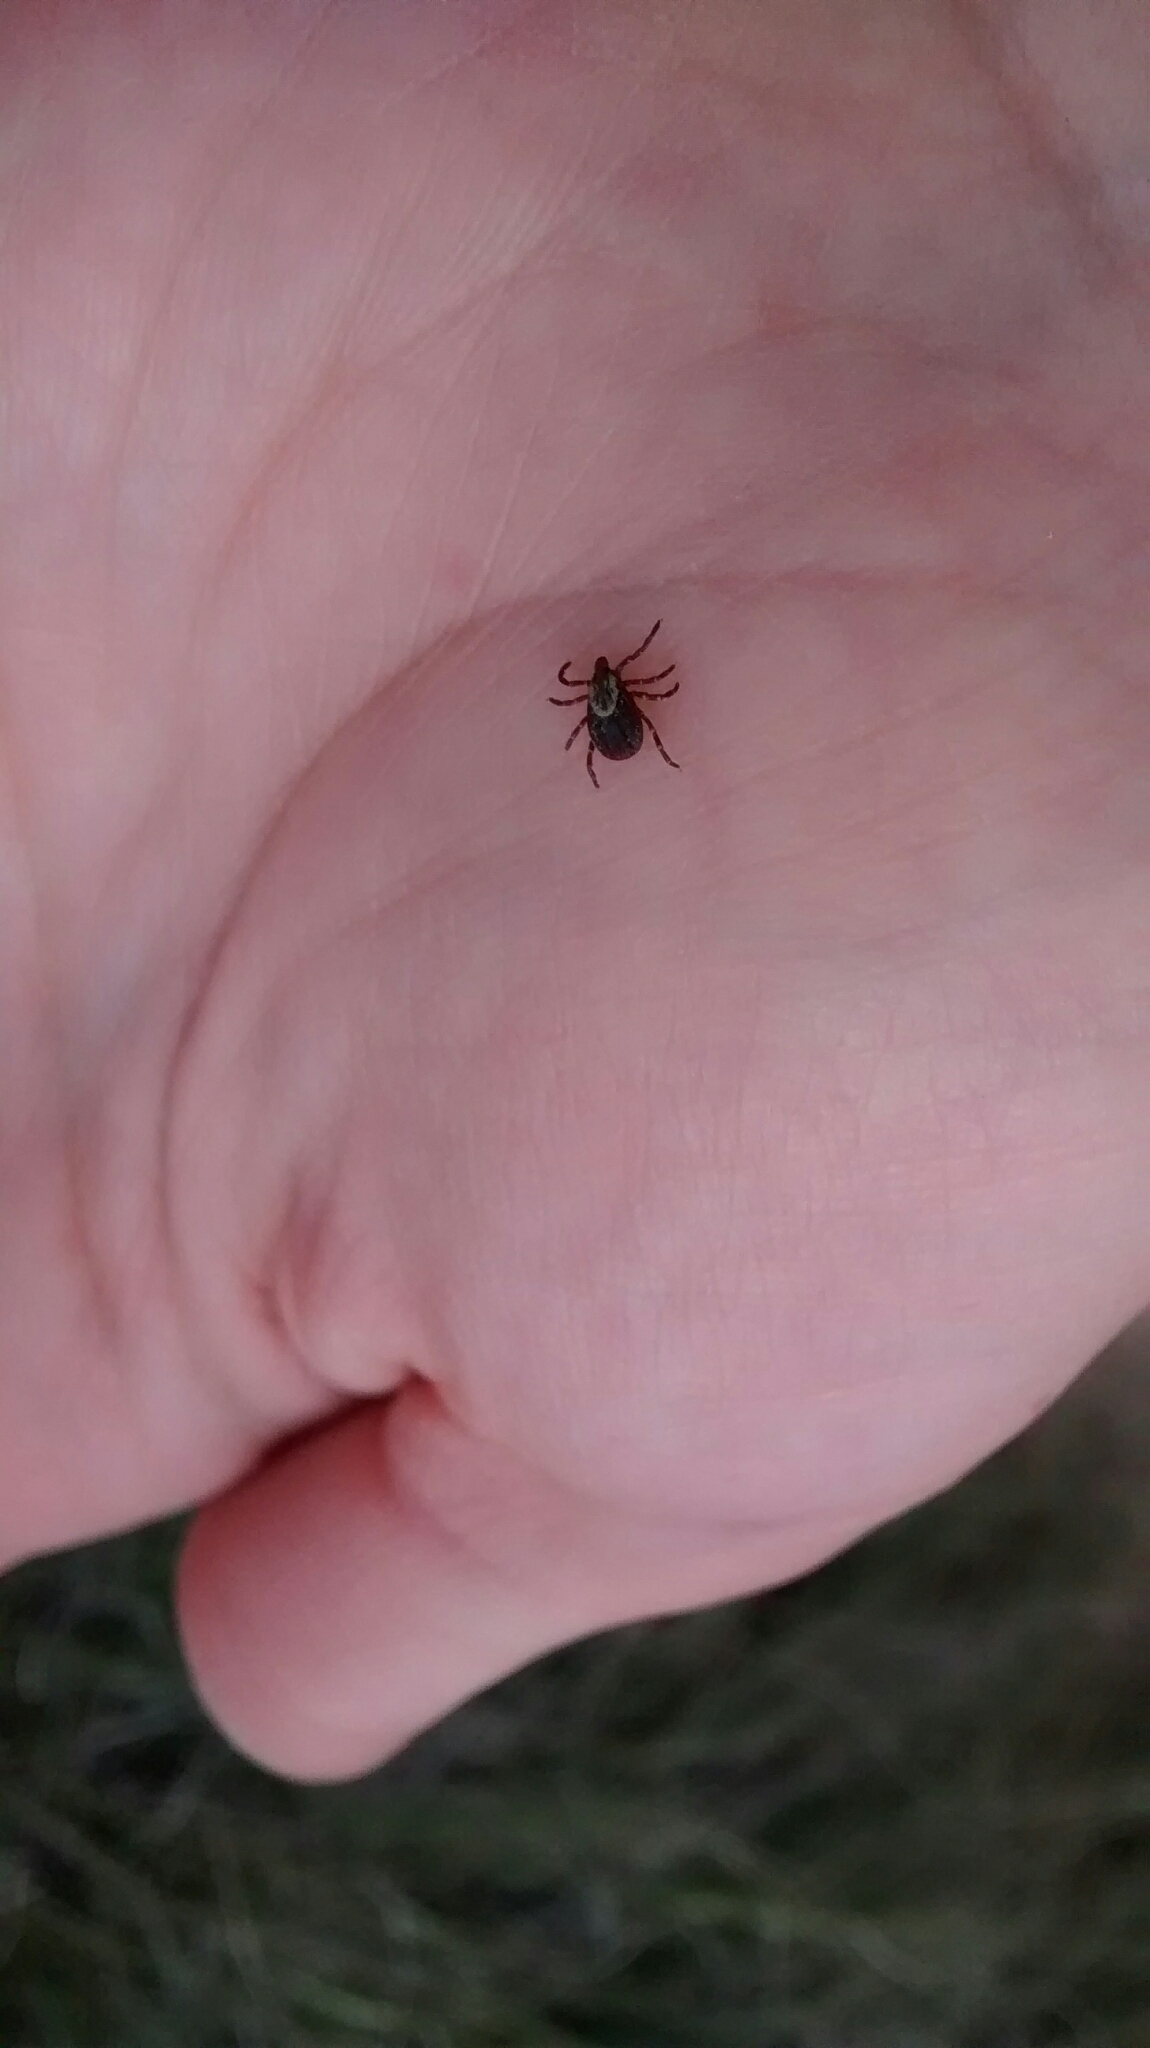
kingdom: Animalia
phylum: Arthropoda
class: Arachnida
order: Ixodida
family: Ixodidae
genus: Dermacentor
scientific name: Dermacentor variabilis
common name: American dog tick
